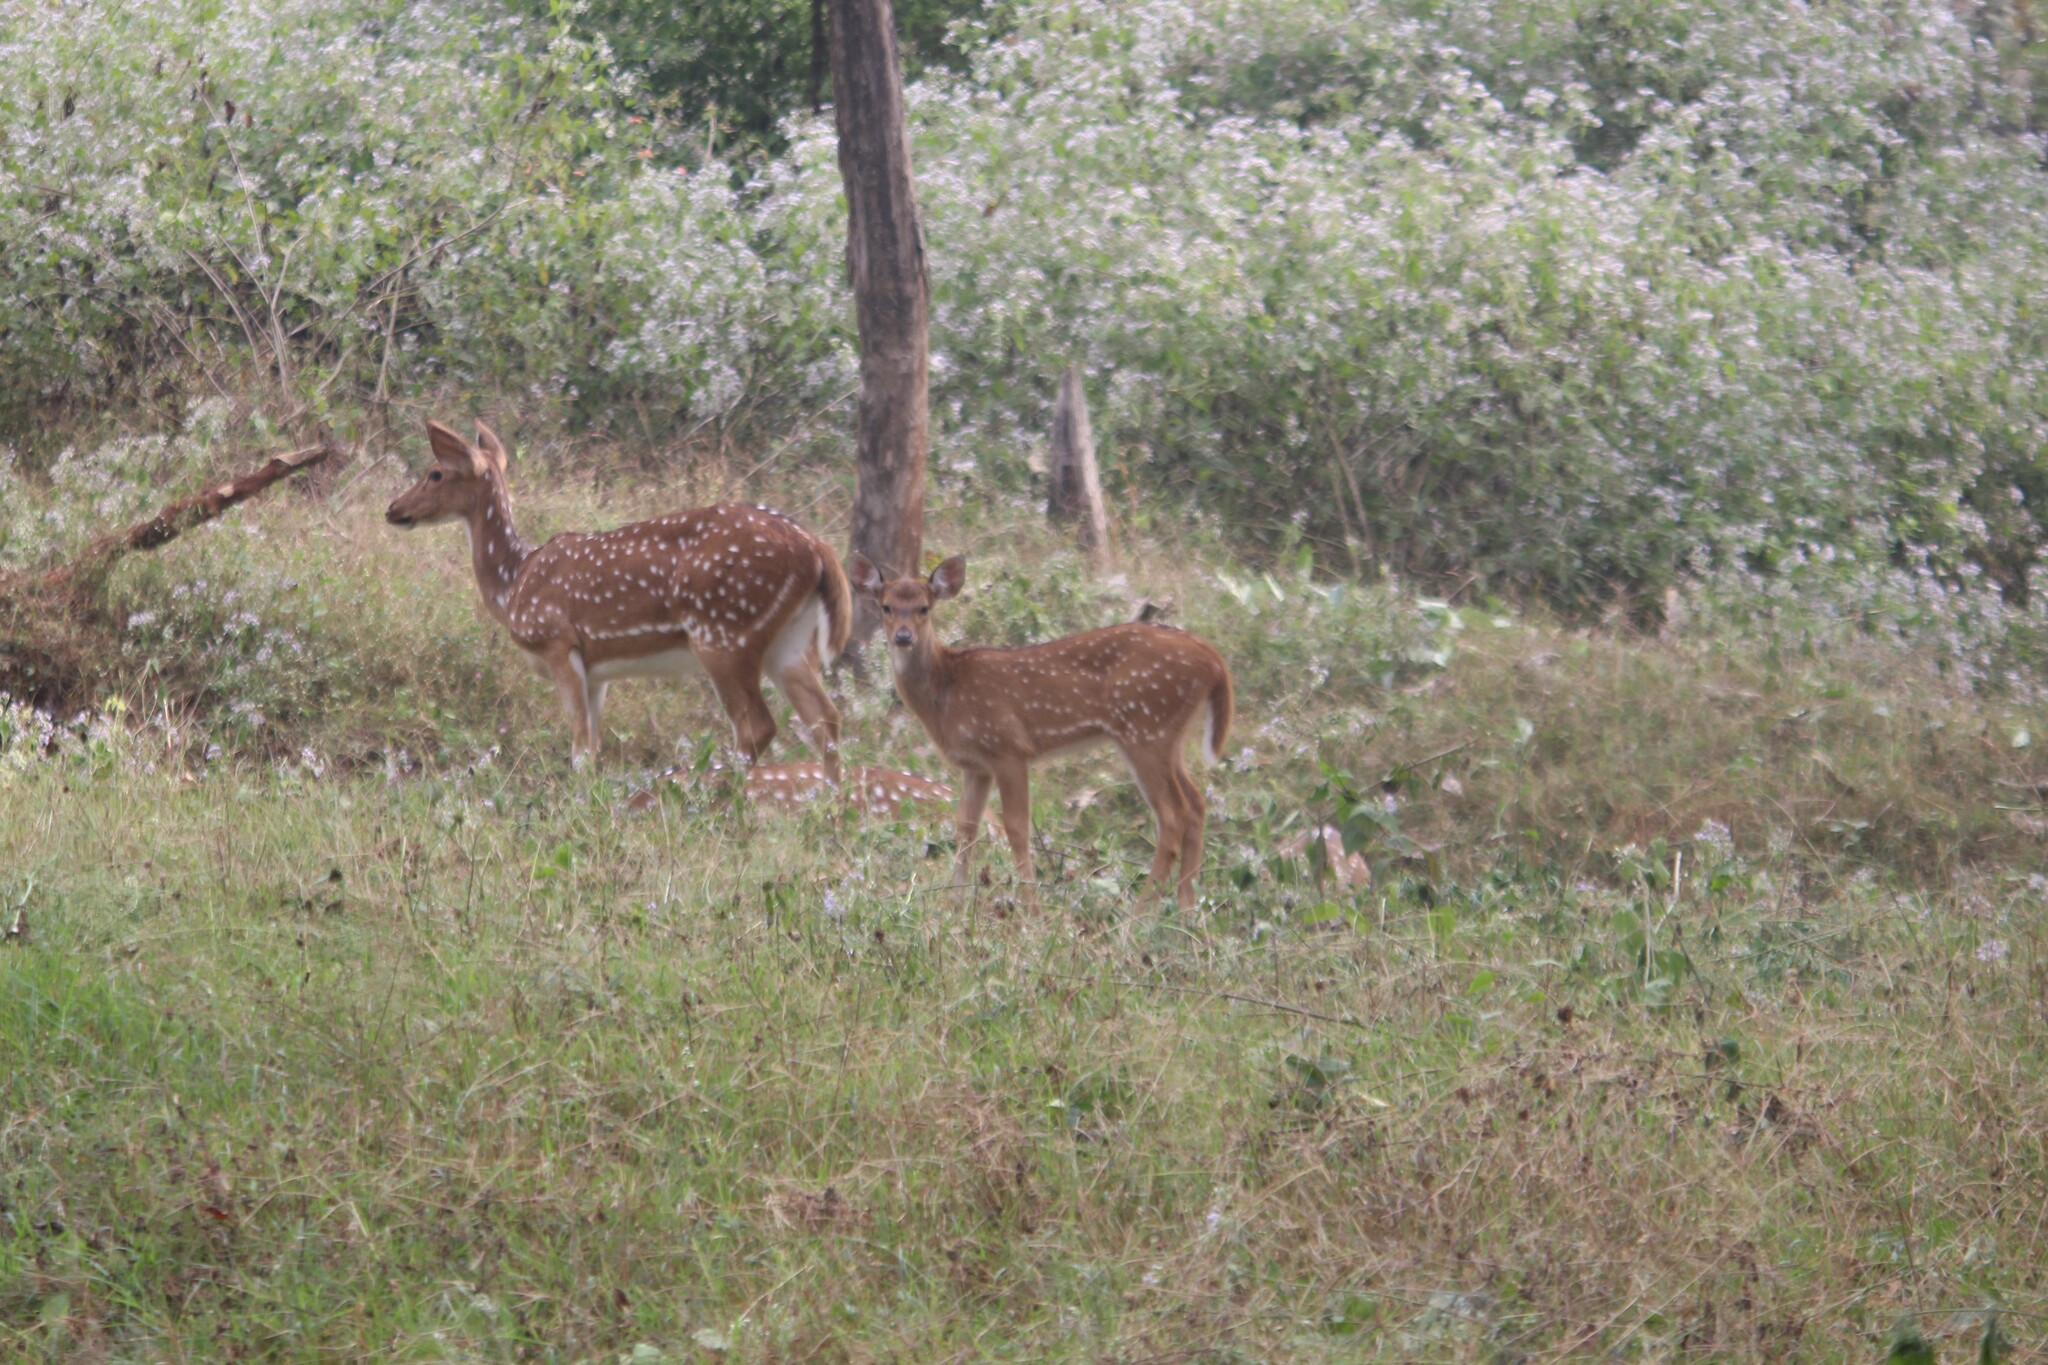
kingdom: Animalia
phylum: Chordata
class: Mammalia
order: Artiodactyla
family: Cervidae
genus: Axis
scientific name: Axis axis
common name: Chital
